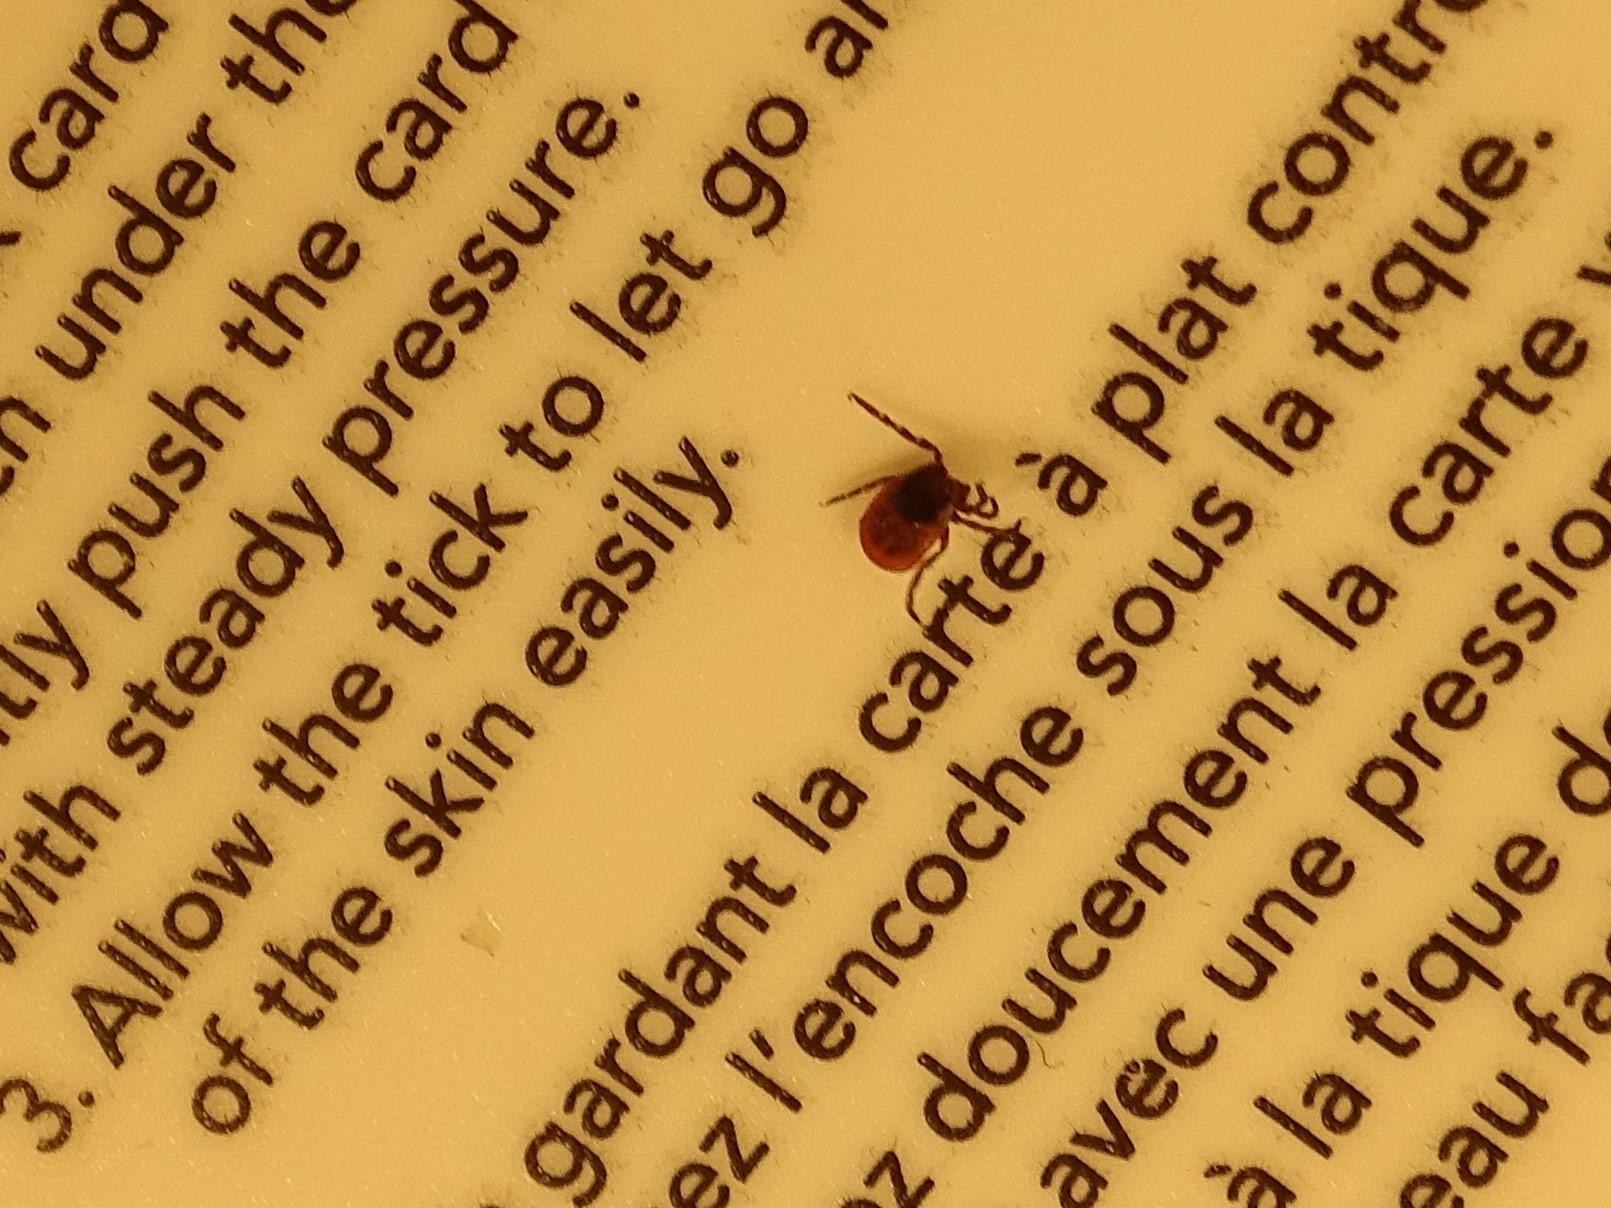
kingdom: Animalia
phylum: Arthropoda
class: Arachnida
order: Ixodida
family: Ixodidae
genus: Ixodes
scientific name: Ixodes scapularis
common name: Black legged tick
